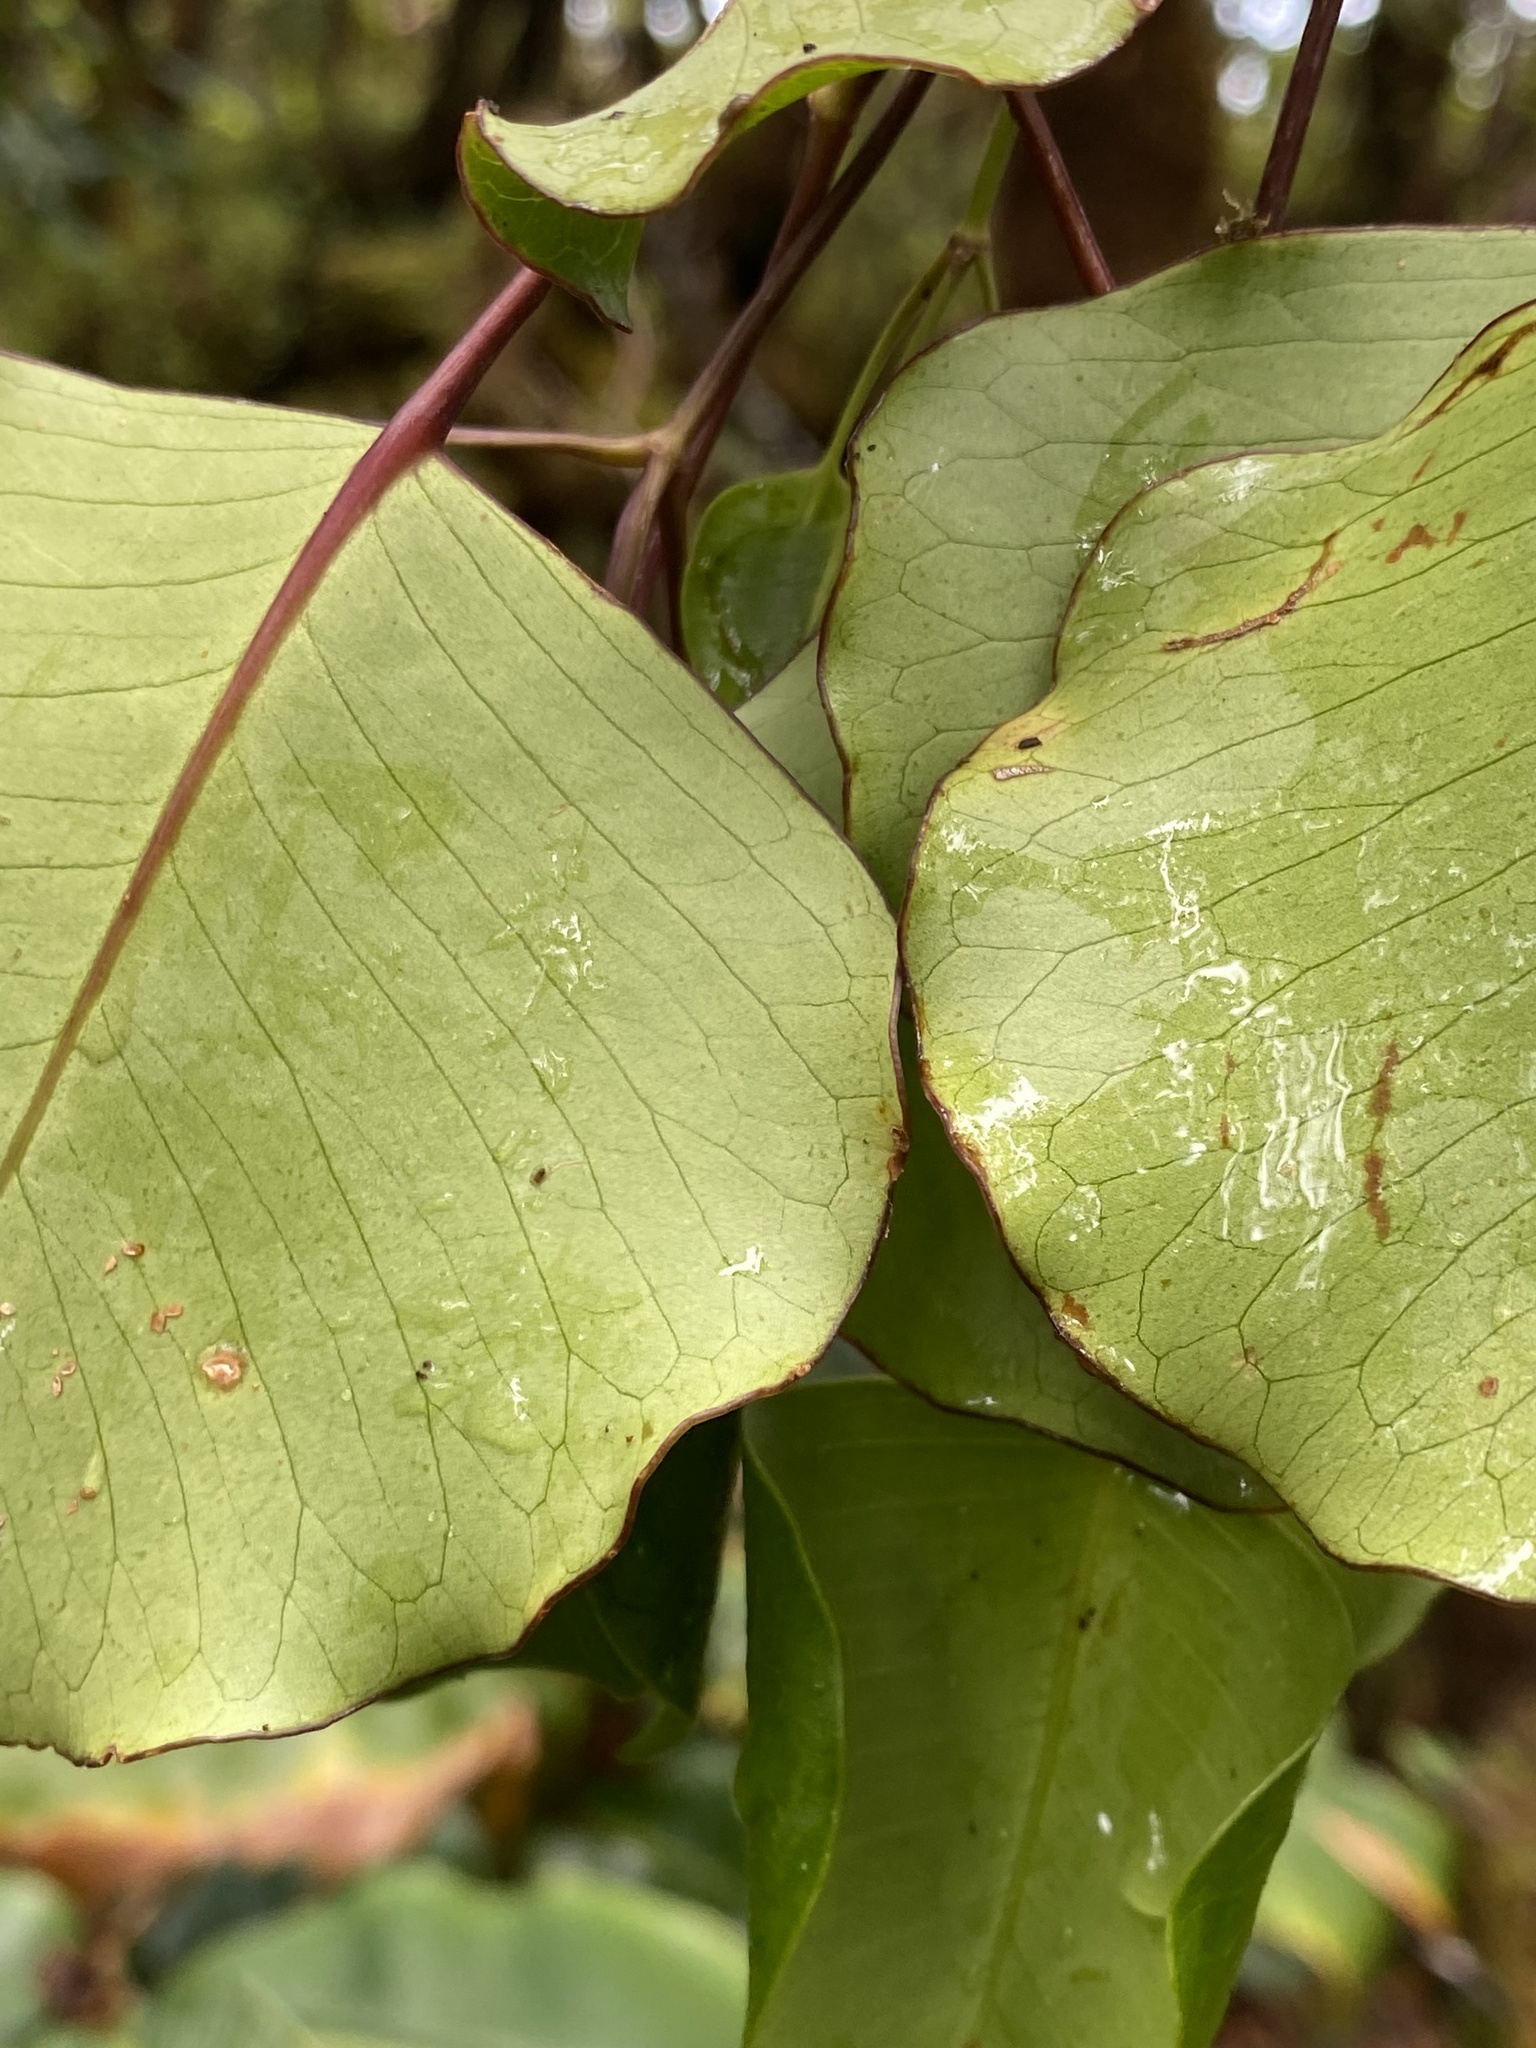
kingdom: Plantae
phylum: Tracheophyta
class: Magnoliopsida
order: Apiales
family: Araliaceae
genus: Cheirodendron
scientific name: Cheirodendron platyphyllum
